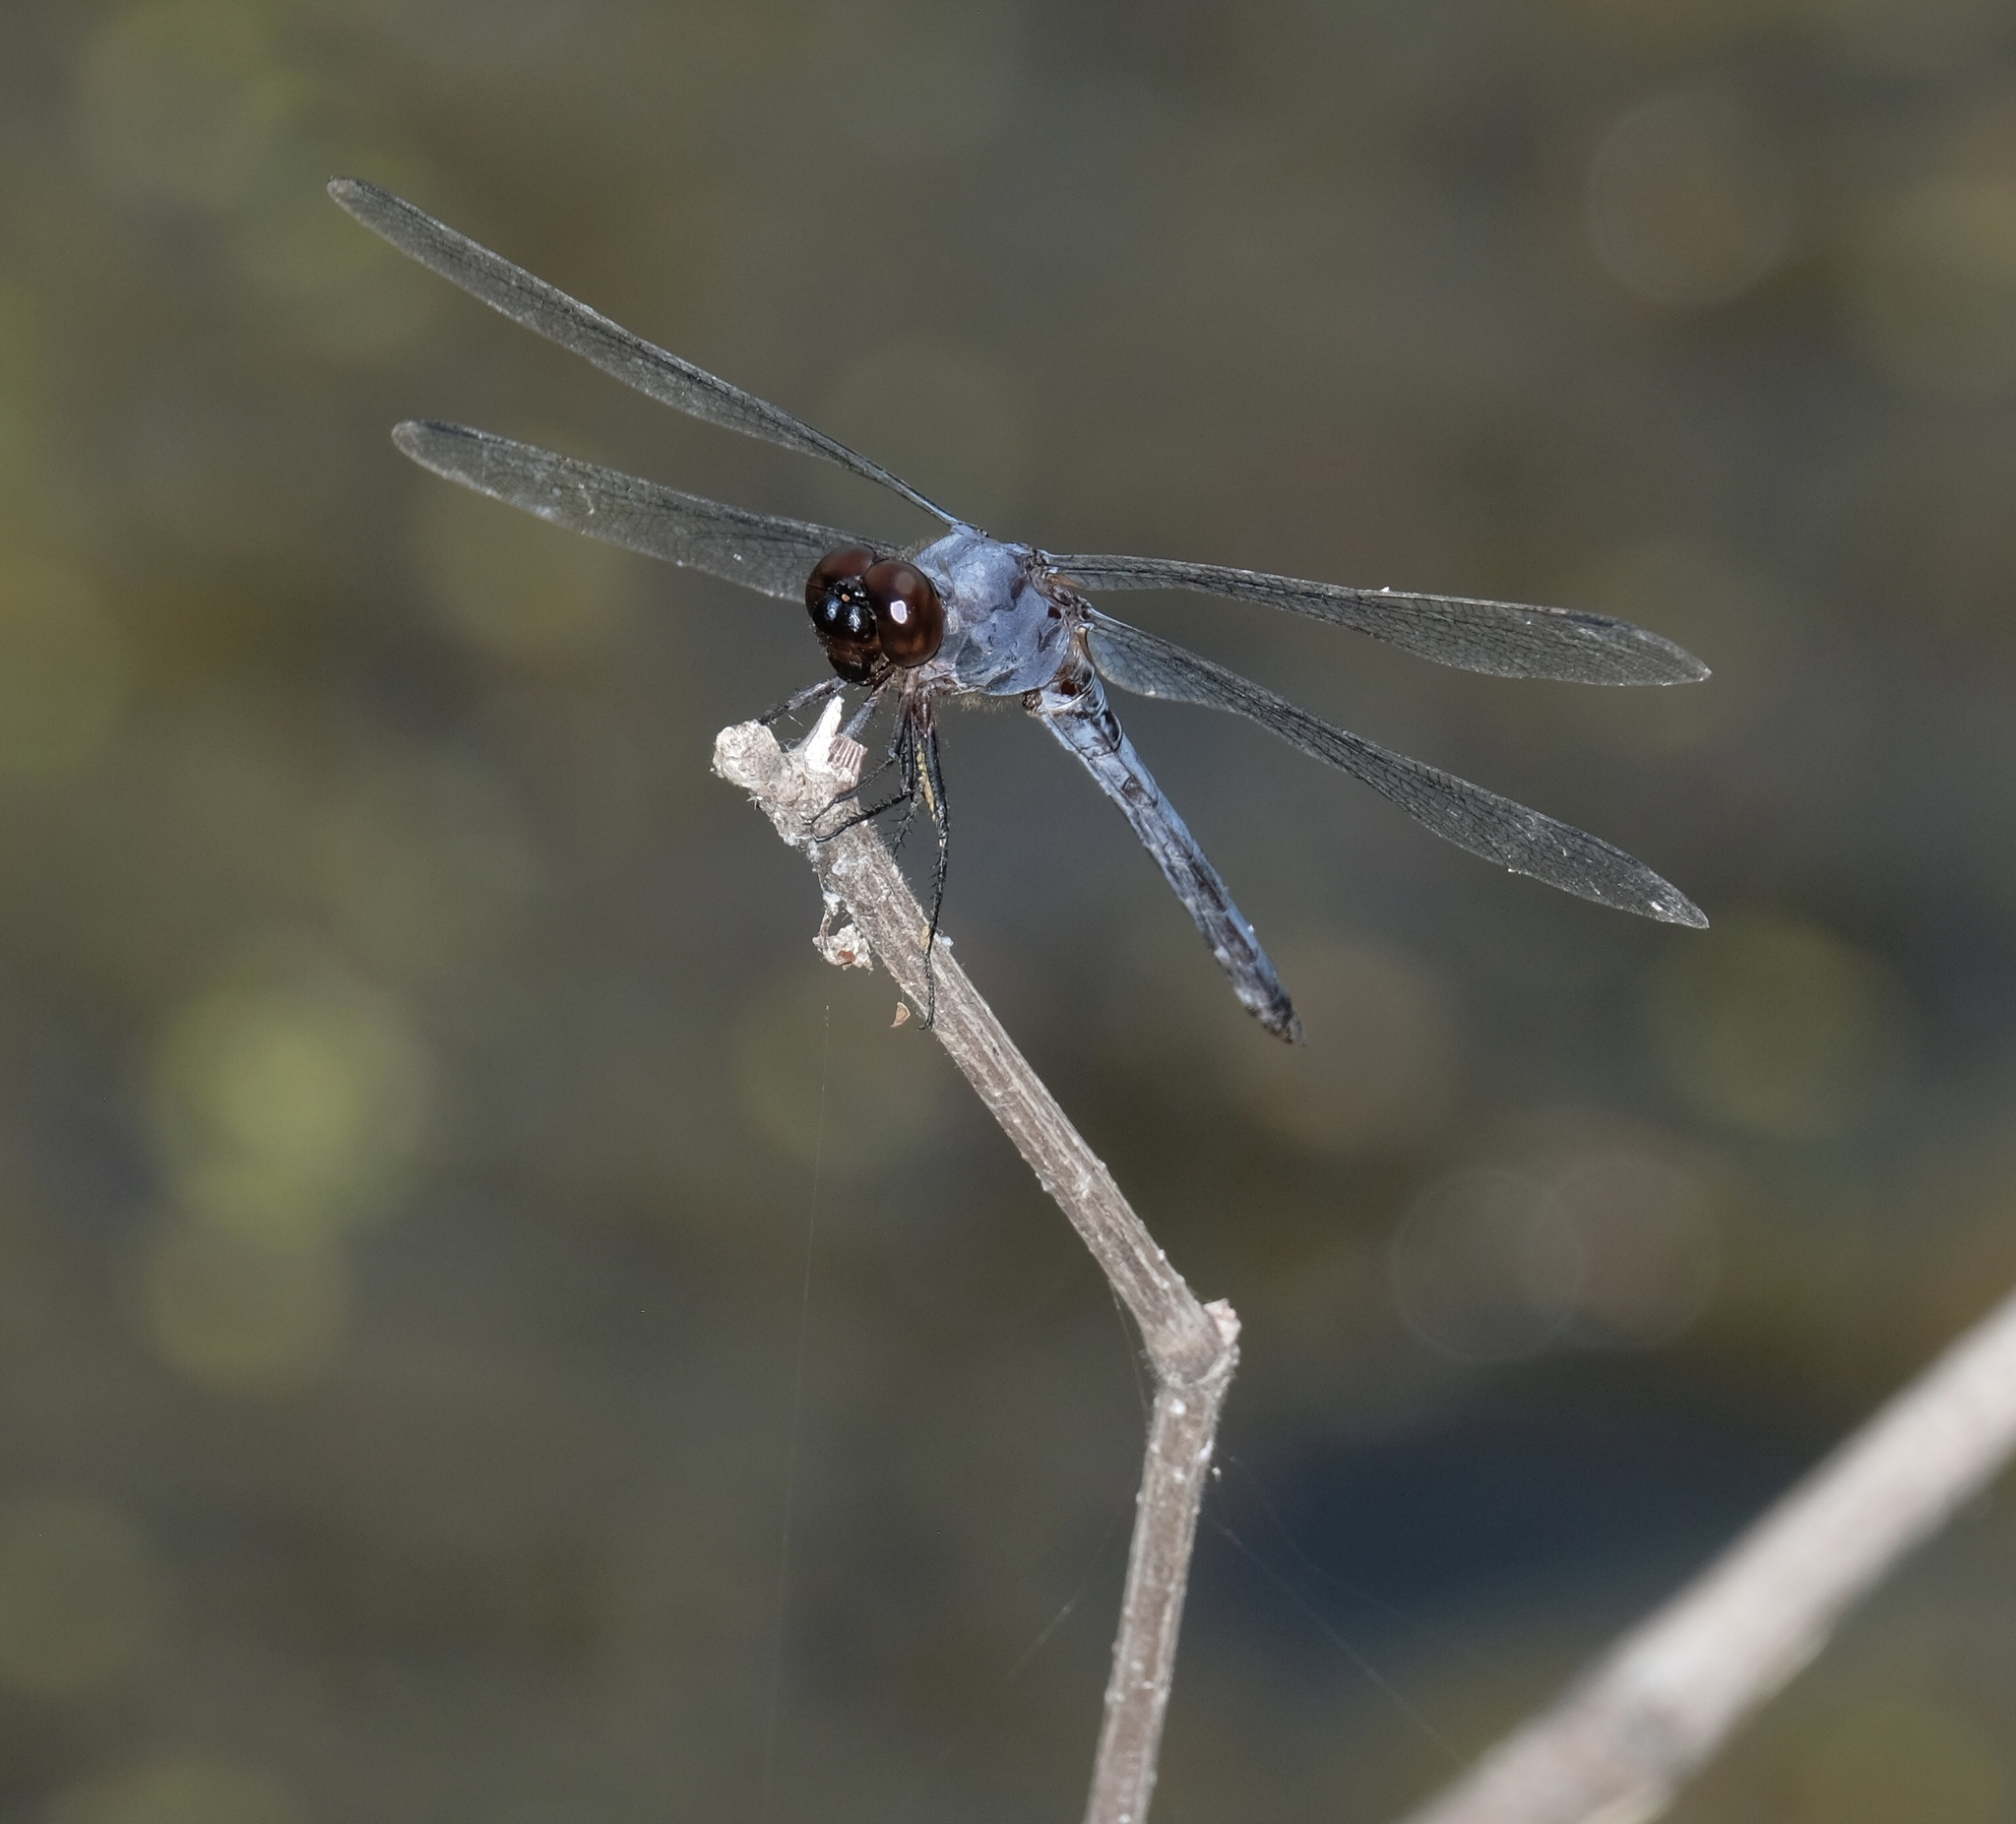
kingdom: Animalia
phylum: Arthropoda
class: Insecta
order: Odonata
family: Libellulidae
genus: Libellula
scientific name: Libellula incesta
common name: Slaty skimmer
